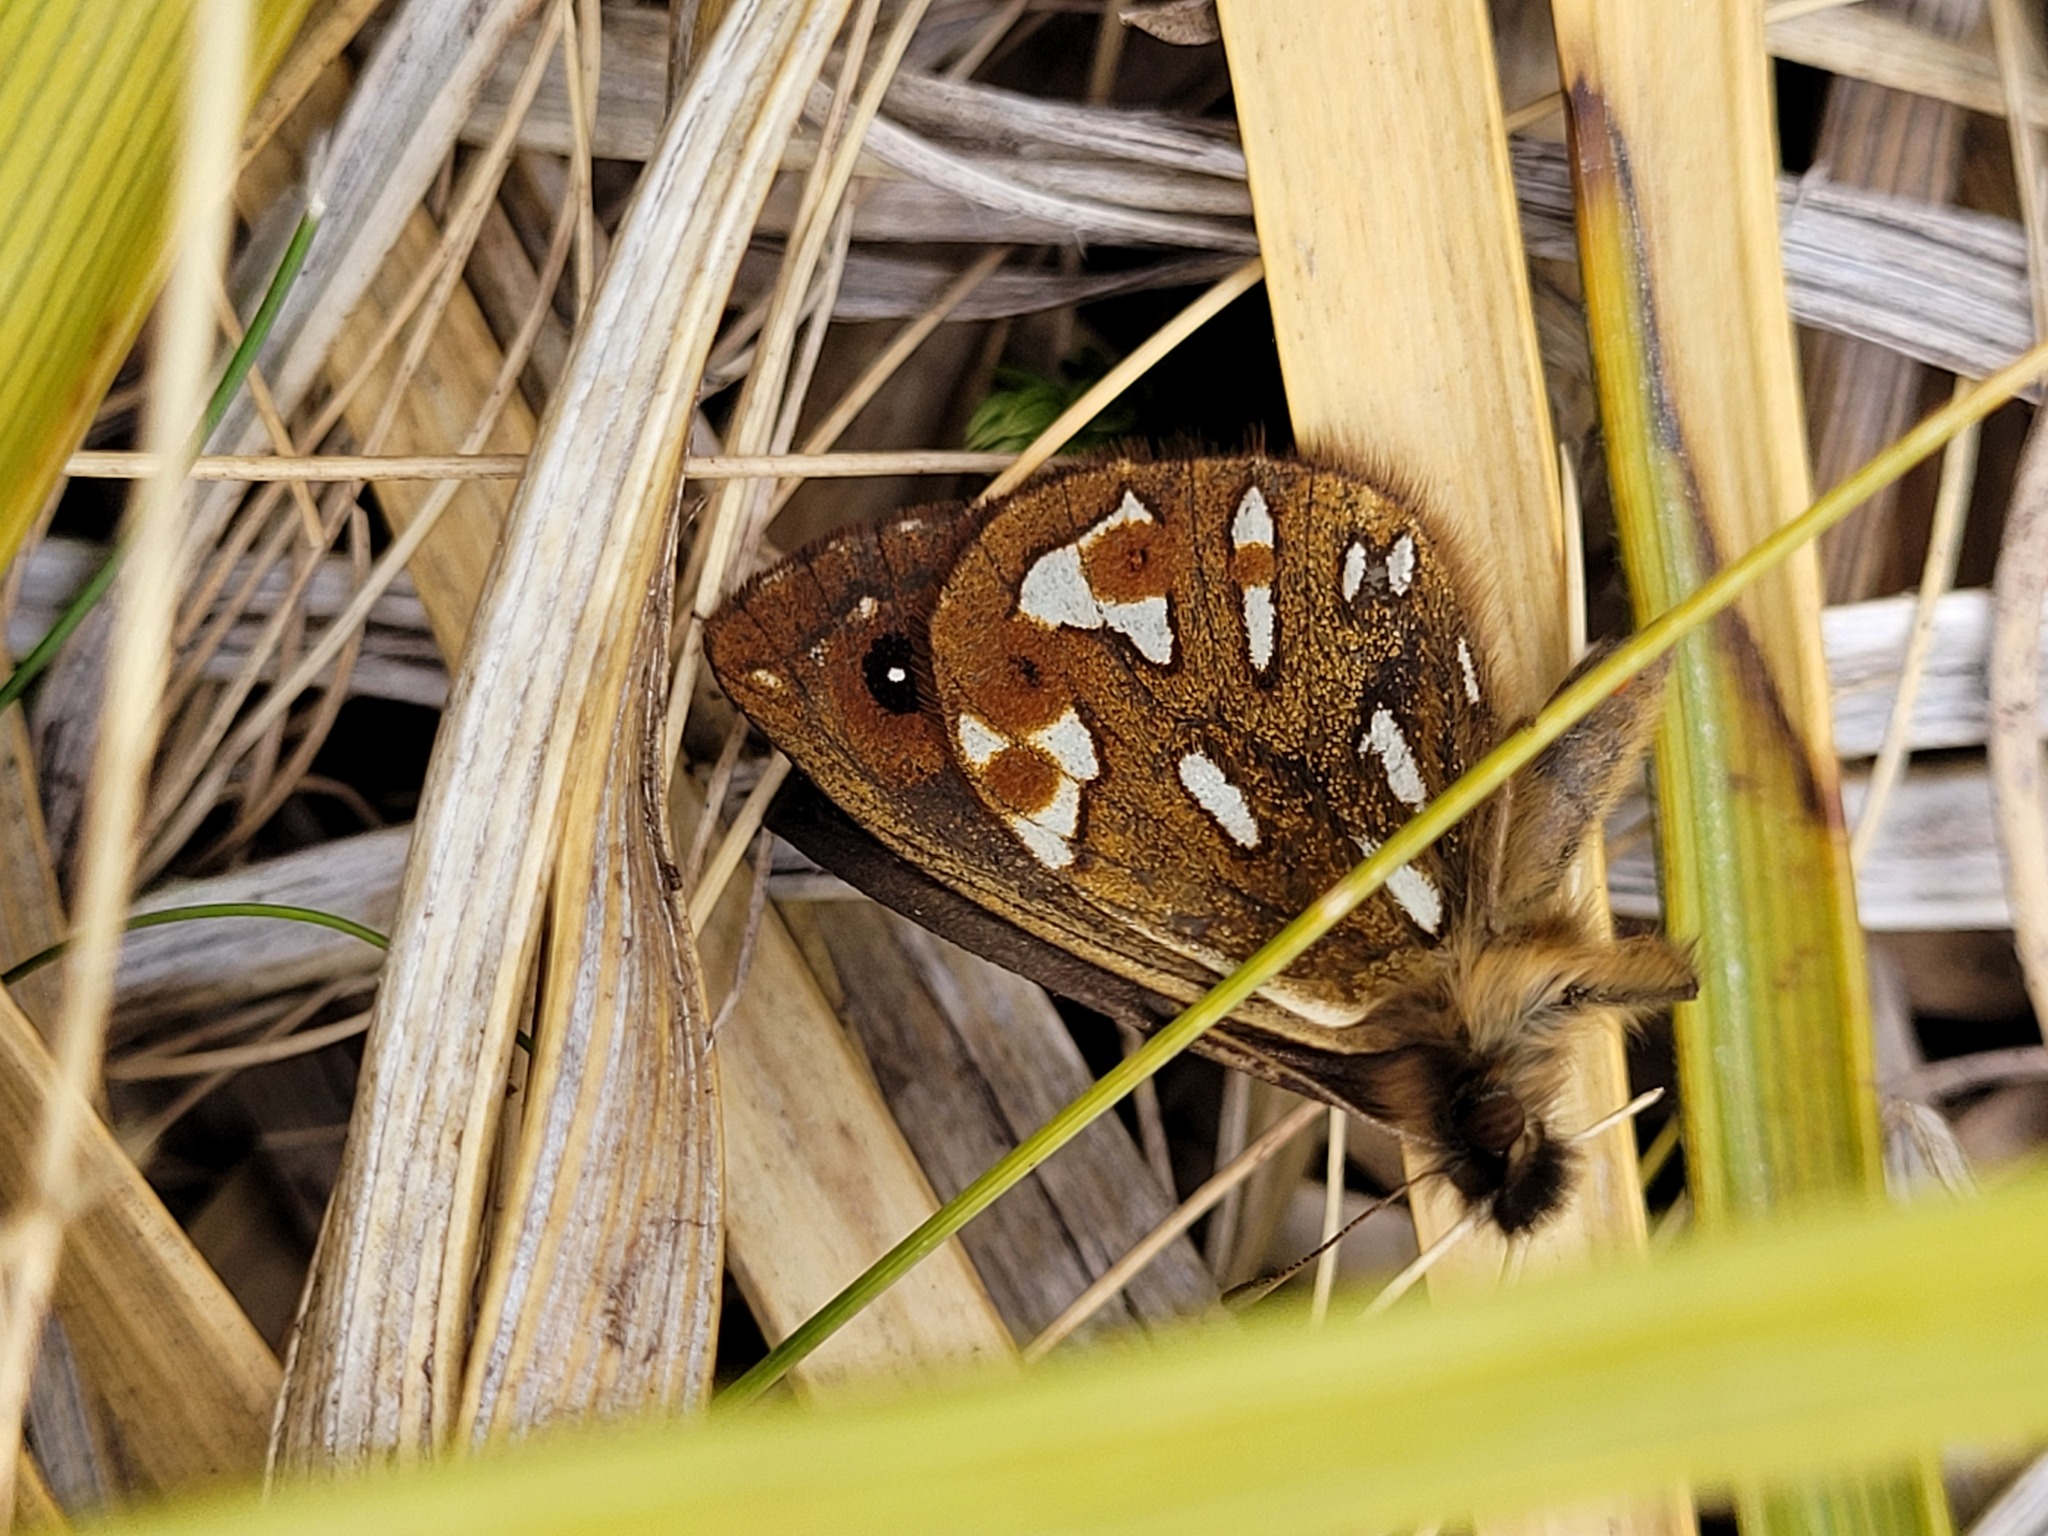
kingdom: Animalia
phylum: Arthropoda
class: Insecta
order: Lepidoptera
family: Nymphalidae
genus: Erebiola
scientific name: Erebiola butleri
